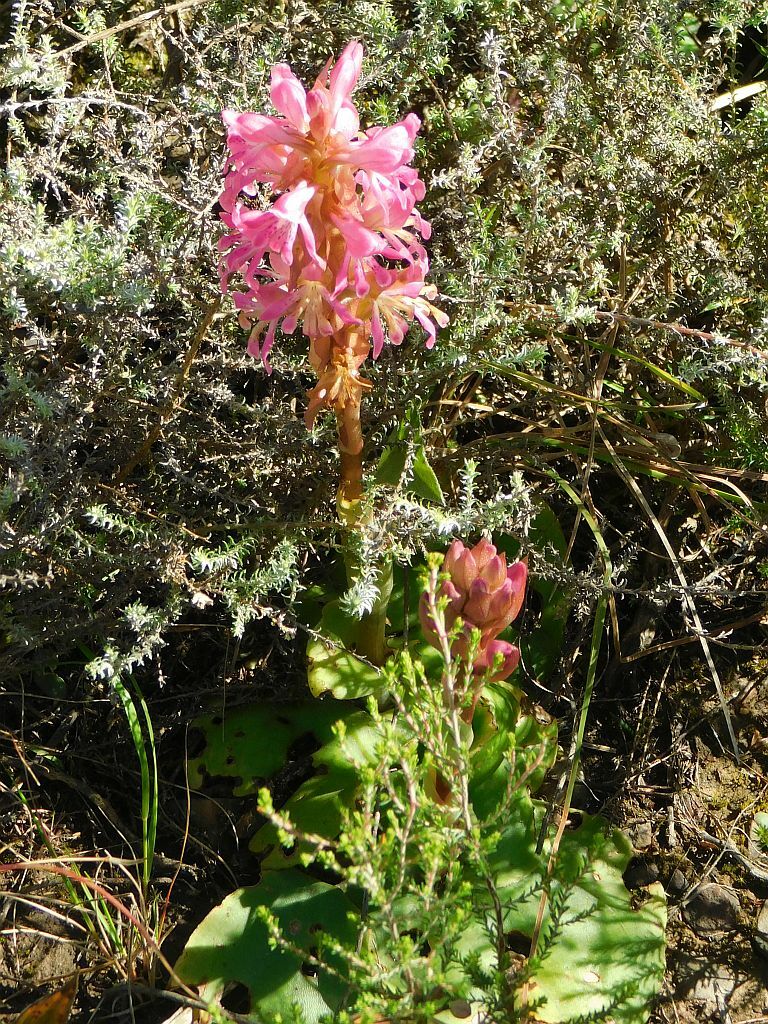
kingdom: Plantae
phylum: Tracheophyta
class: Liliopsida
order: Asparagales
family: Orchidaceae
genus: Satyrium
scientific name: Satyrium erectum
